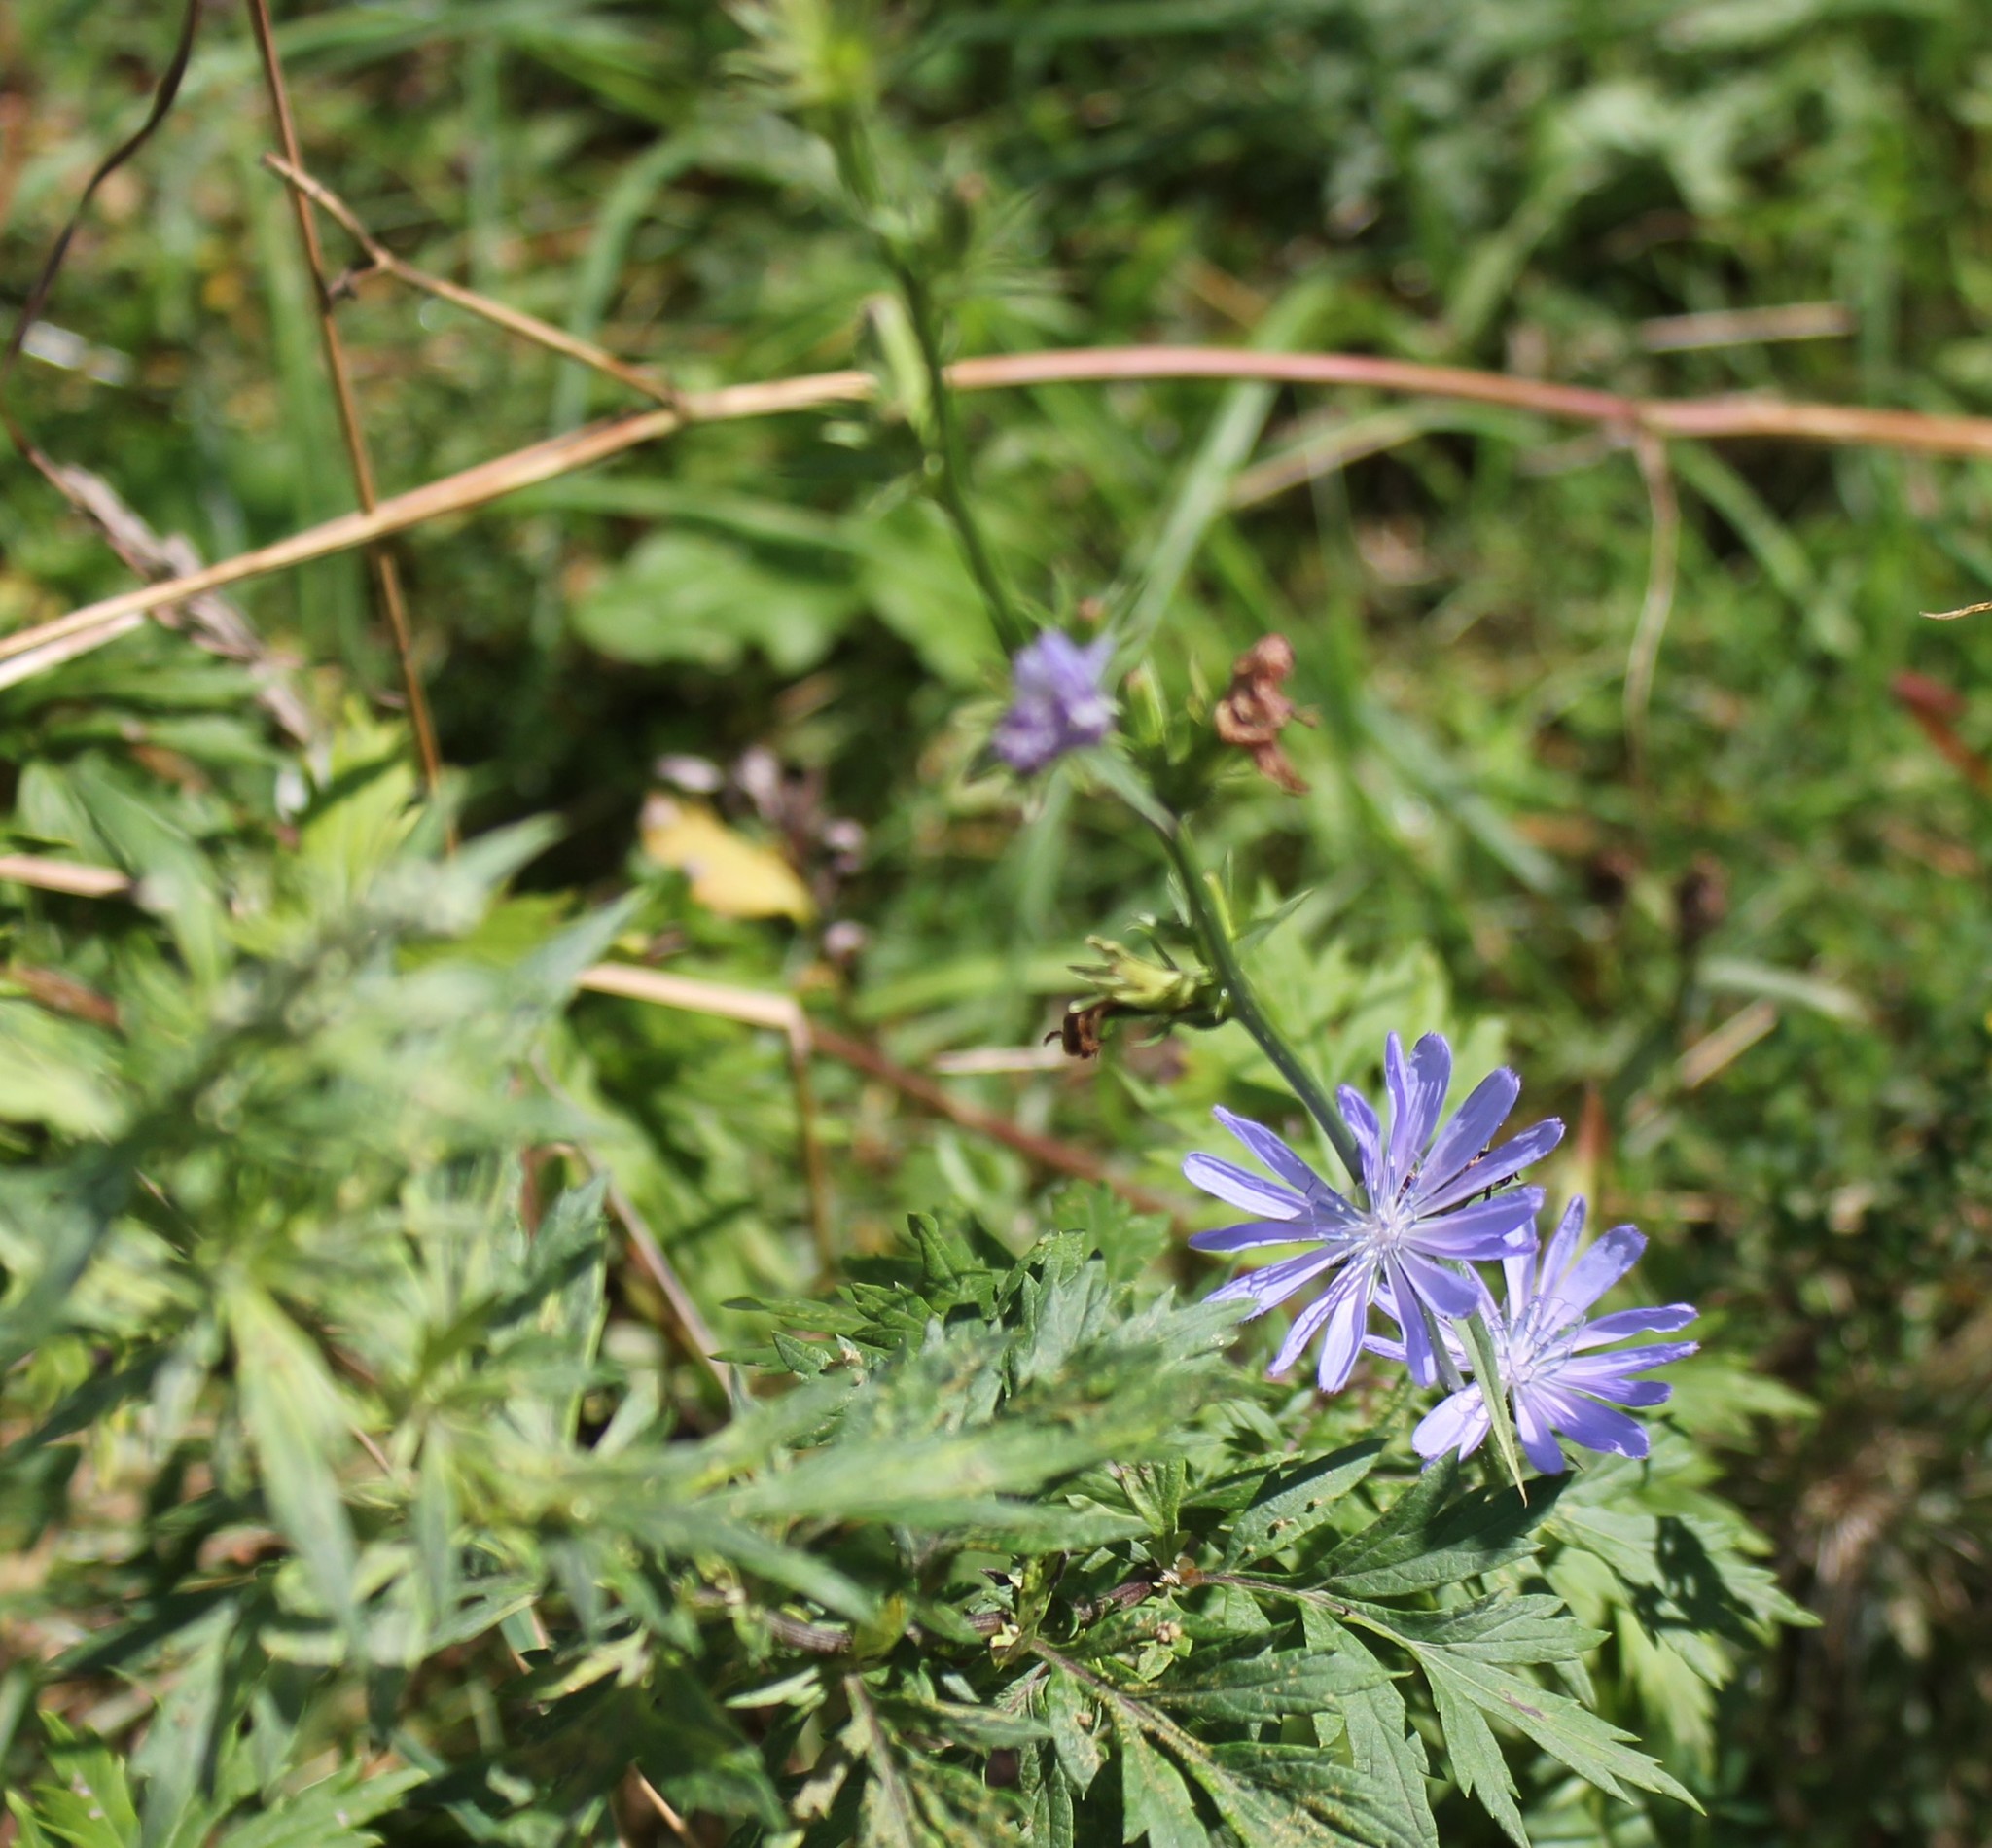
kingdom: Plantae
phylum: Tracheophyta
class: Magnoliopsida
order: Asterales
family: Asteraceae
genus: Cichorium
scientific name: Cichorium intybus
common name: Chicory
